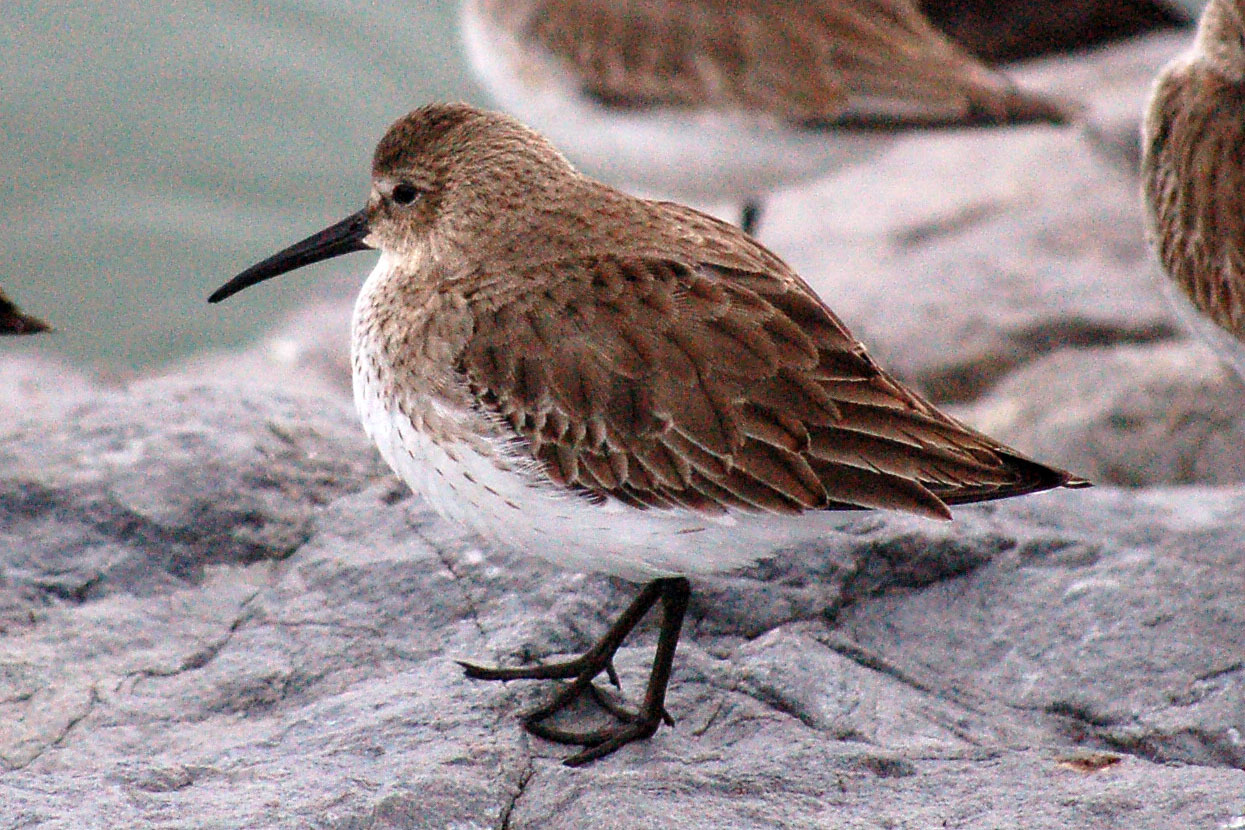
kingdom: Animalia
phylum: Chordata
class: Aves
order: Charadriiformes
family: Scolopacidae
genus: Calidris
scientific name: Calidris alpina
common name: Dunlin
